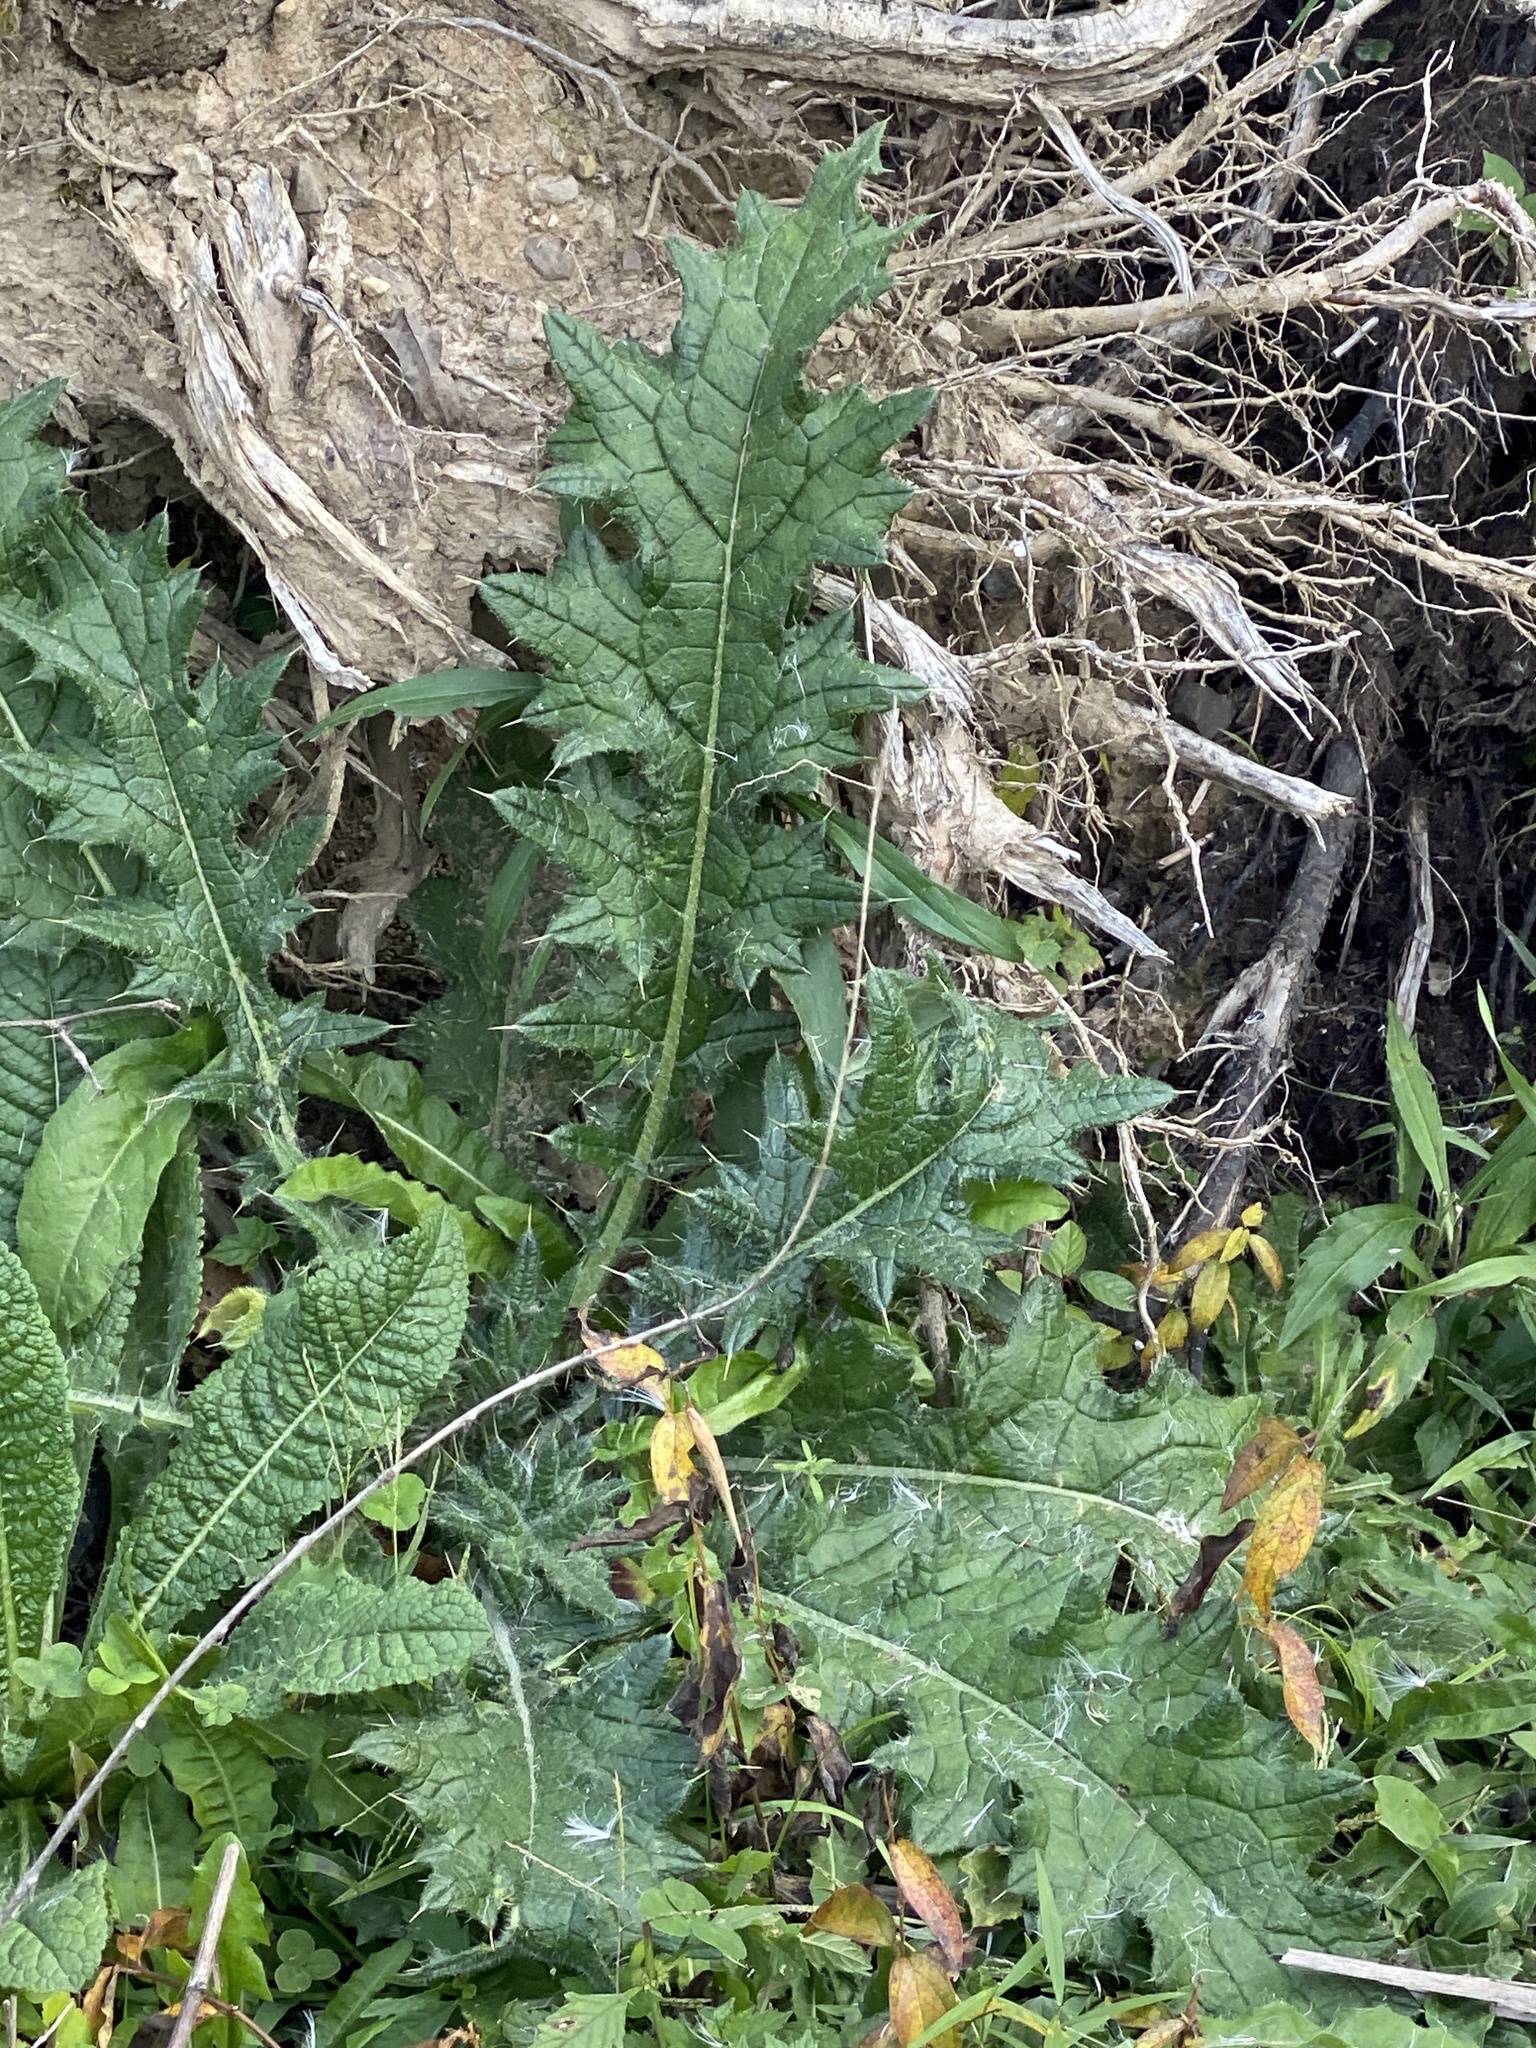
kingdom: Plantae
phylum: Tracheophyta
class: Magnoliopsida
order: Asterales
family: Asteraceae
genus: Cirsium
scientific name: Cirsium vulgare
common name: Bull thistle
